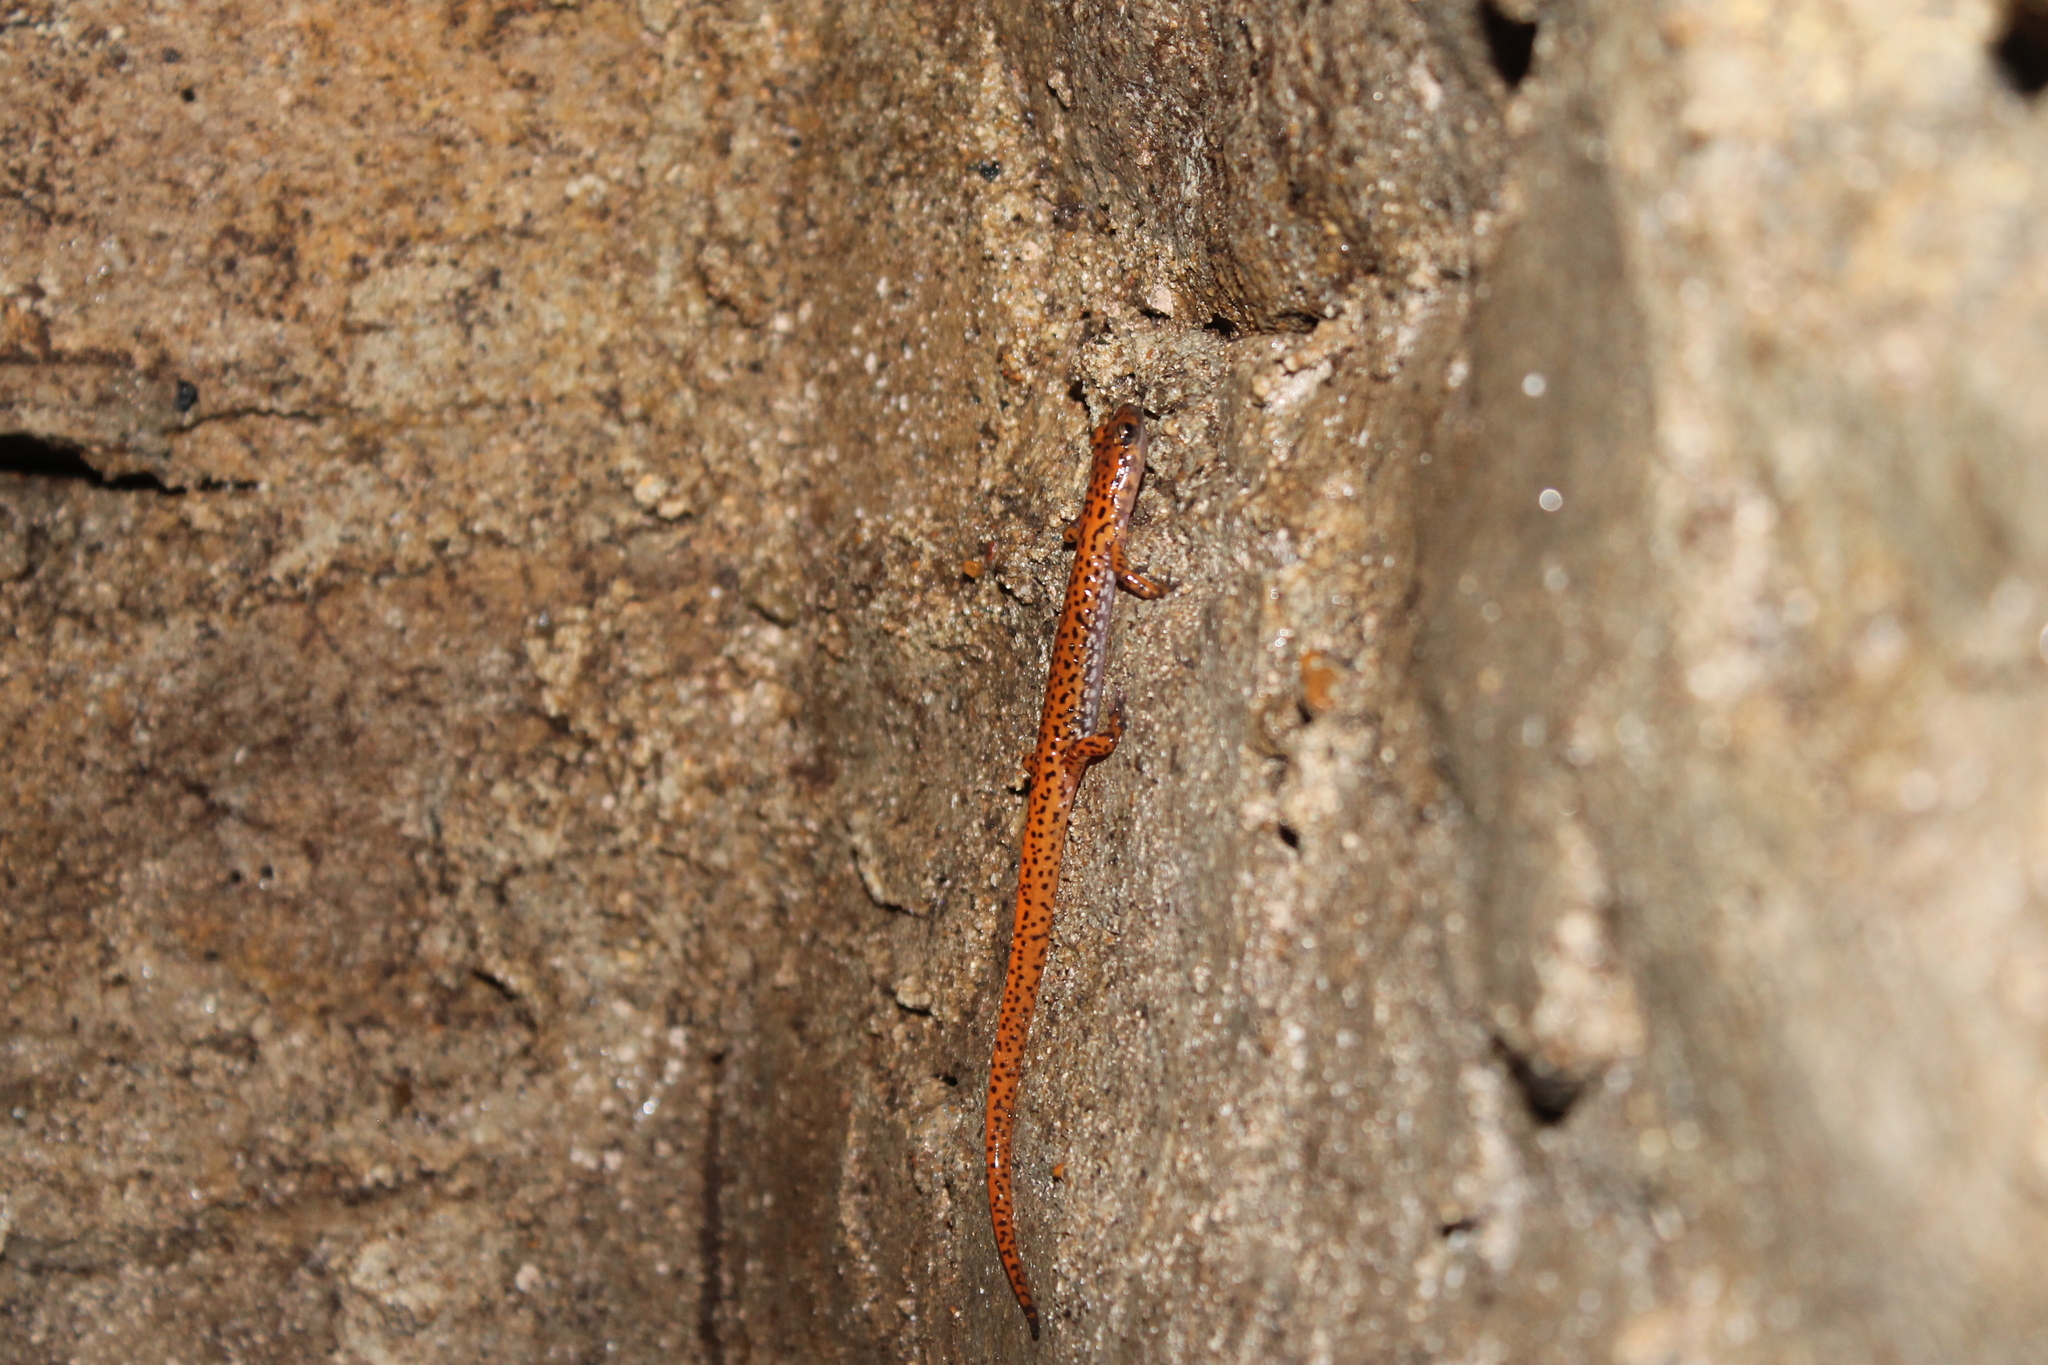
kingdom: Animalia
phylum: Chordata
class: Amphibia
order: Caudata
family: Plethodontidae
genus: Eurycea
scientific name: Eurycea lucifuga
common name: Cave salamander
